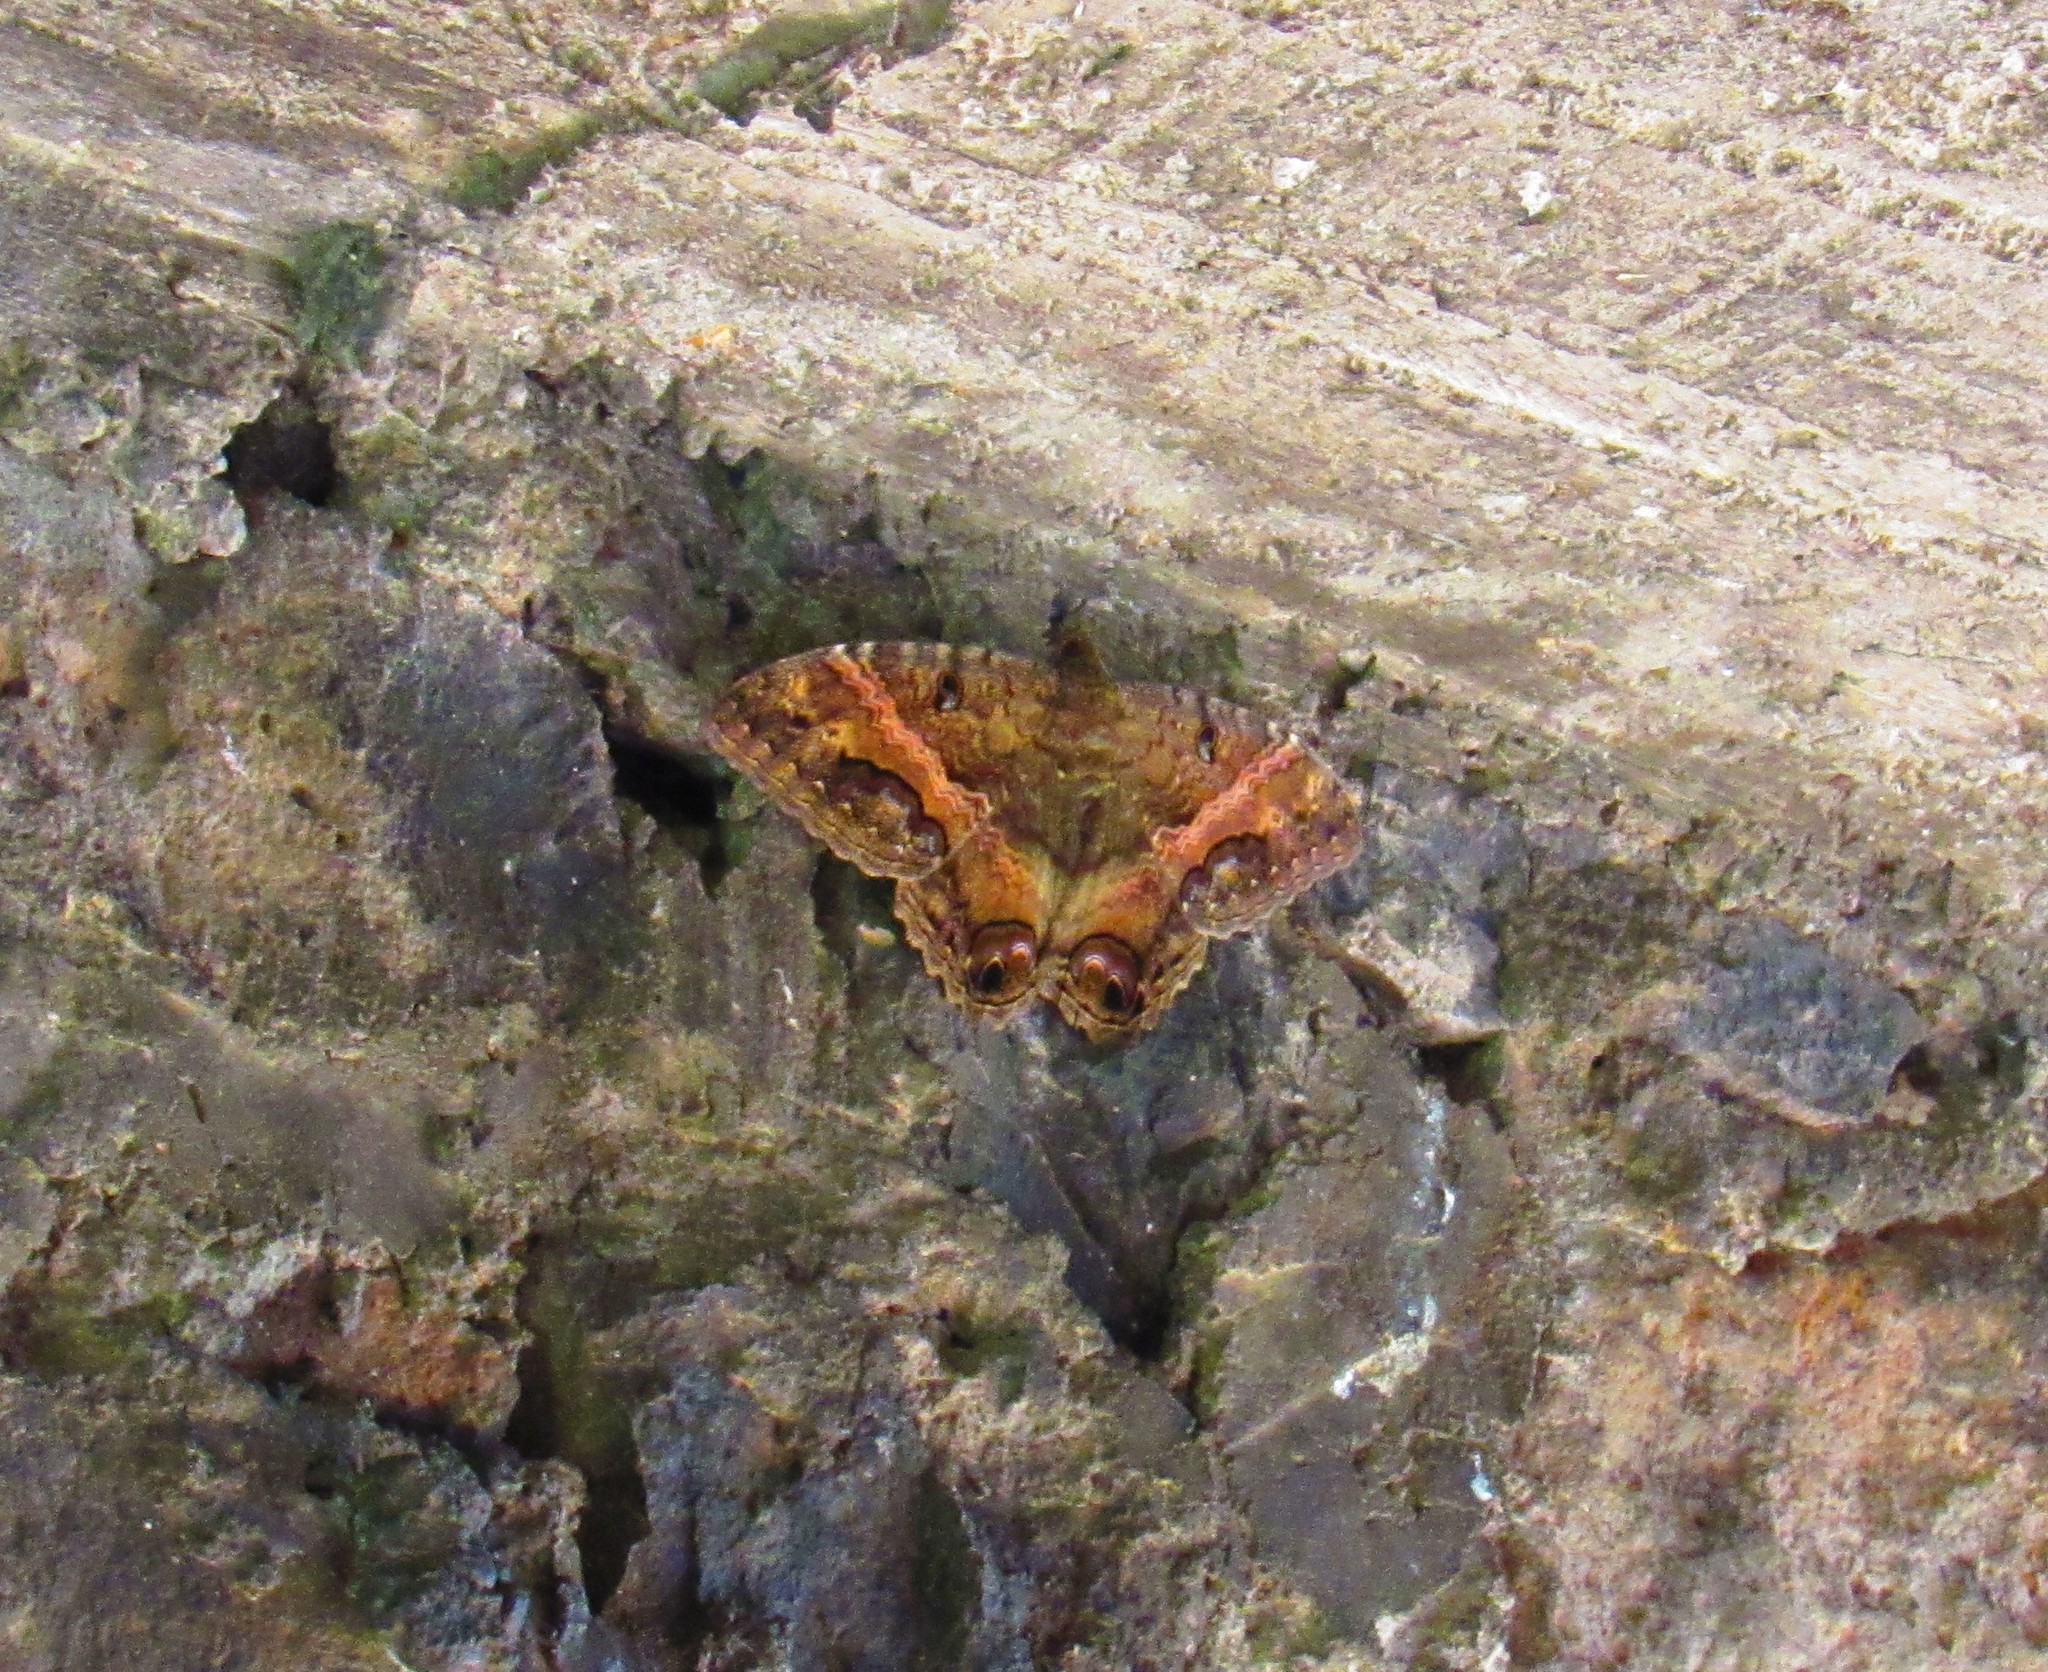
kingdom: Animalia
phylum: Arthropoda
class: Insecta
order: Lepidoptera
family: Erebidae
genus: Ascalapha
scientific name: Ascalapha odorata
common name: Black witch
